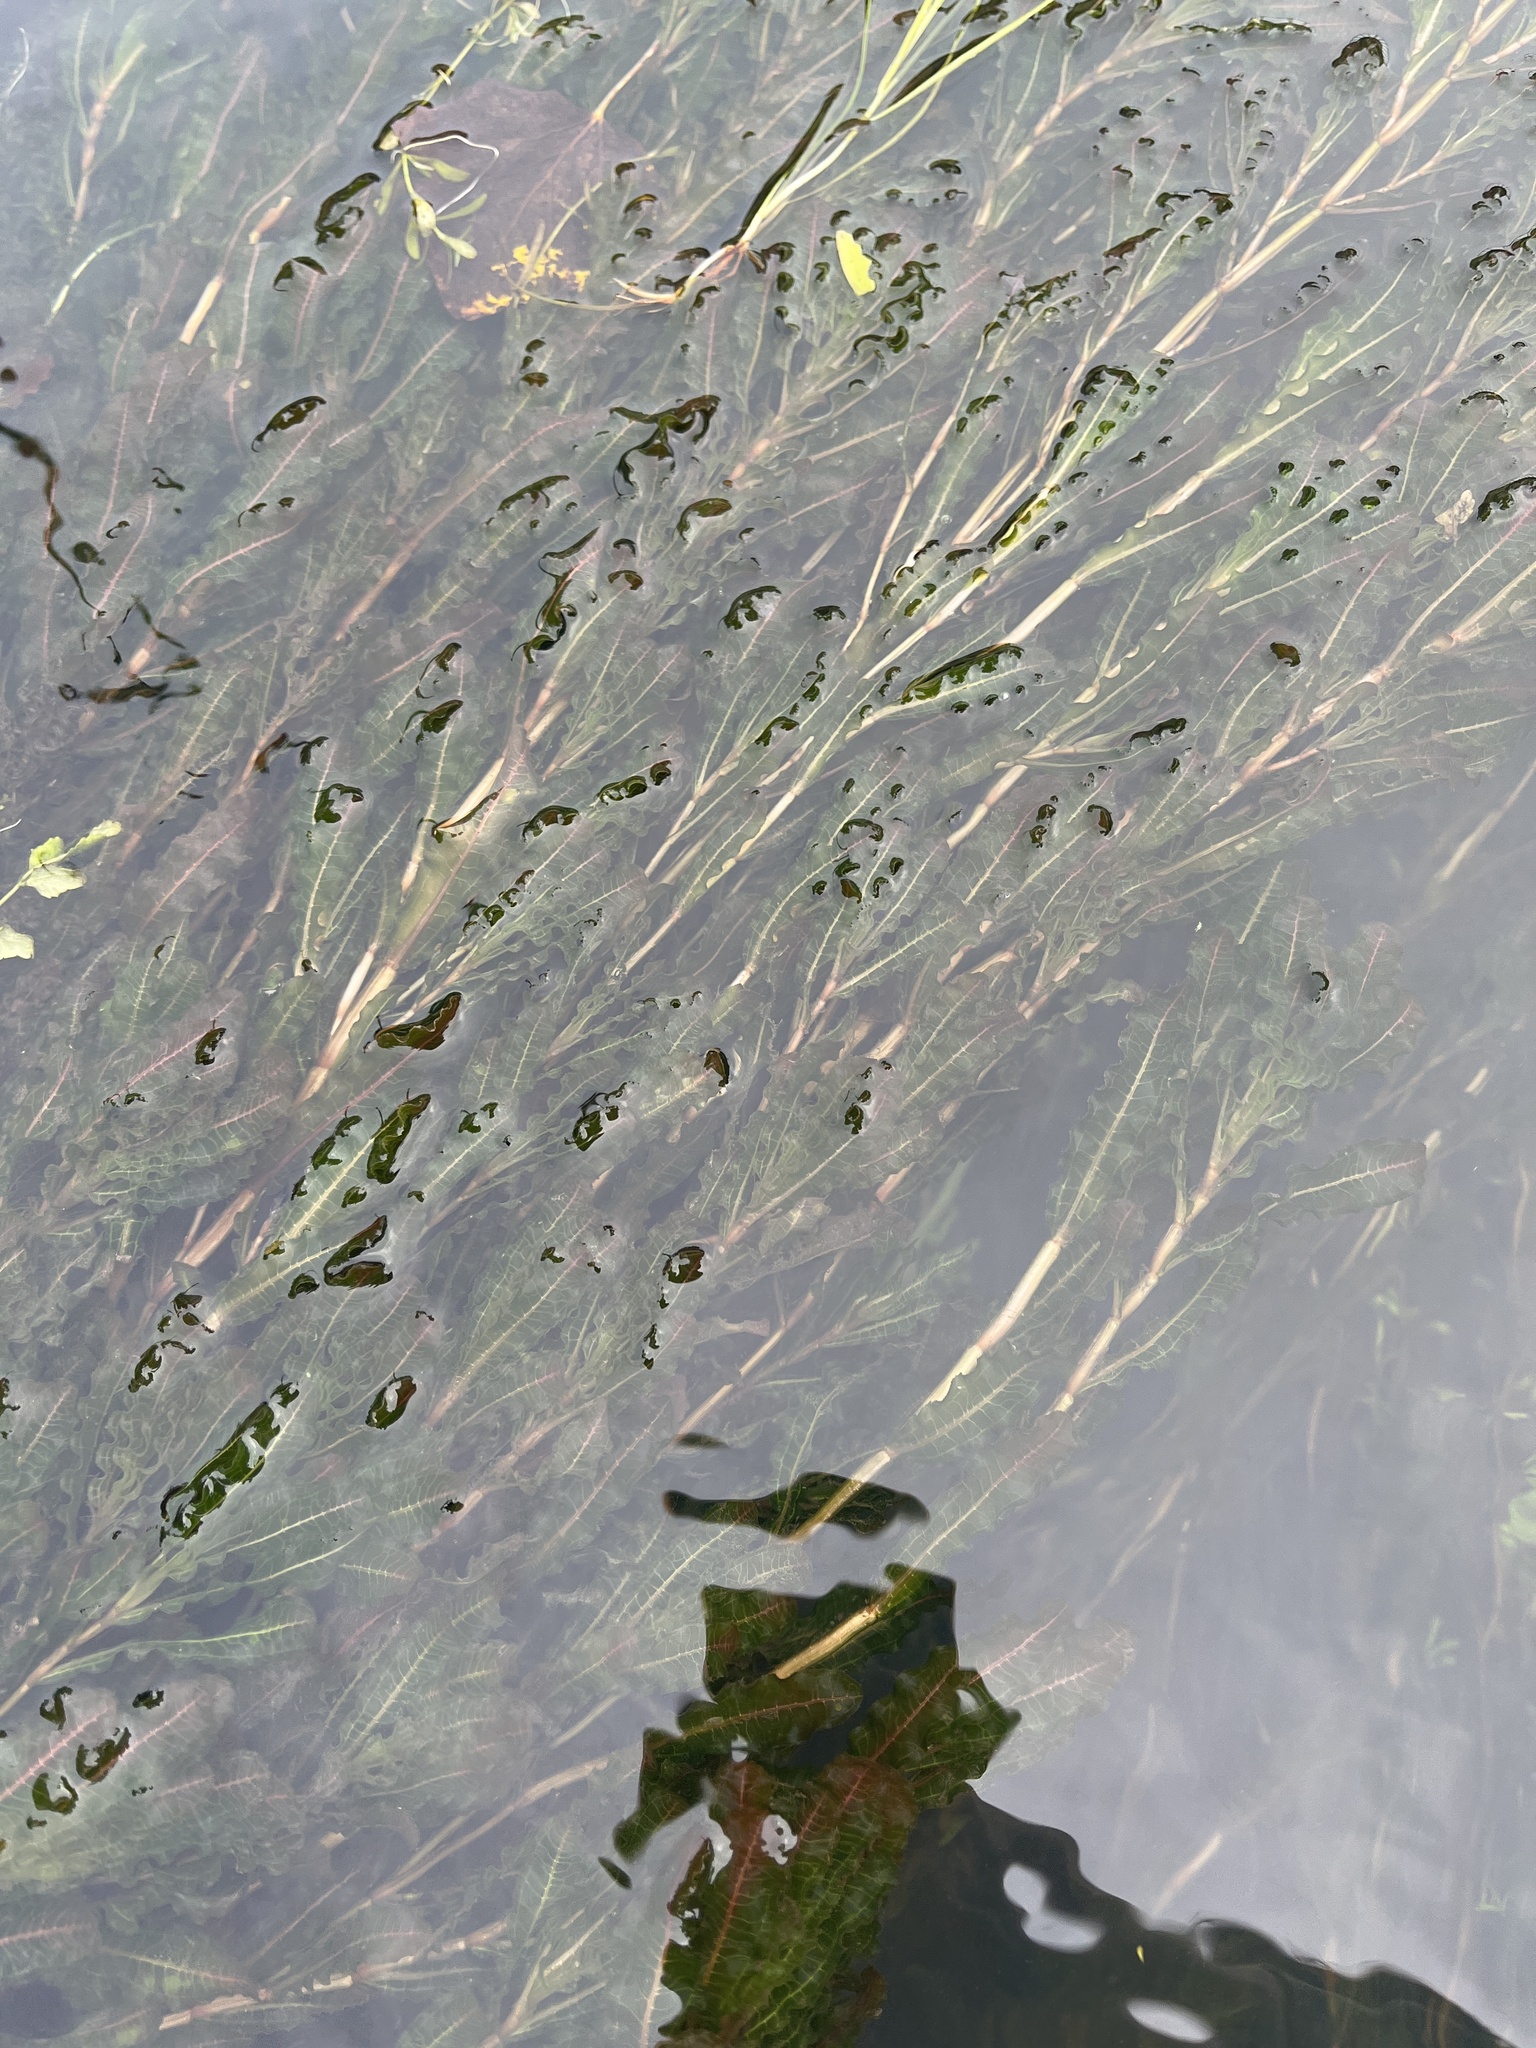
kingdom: Plantae
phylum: Tracheophyta
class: Liliopsida
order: Alismatales
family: Potamogetonaceae
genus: Potamogeton
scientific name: Potamogeton crispus
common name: Curled pondweed
